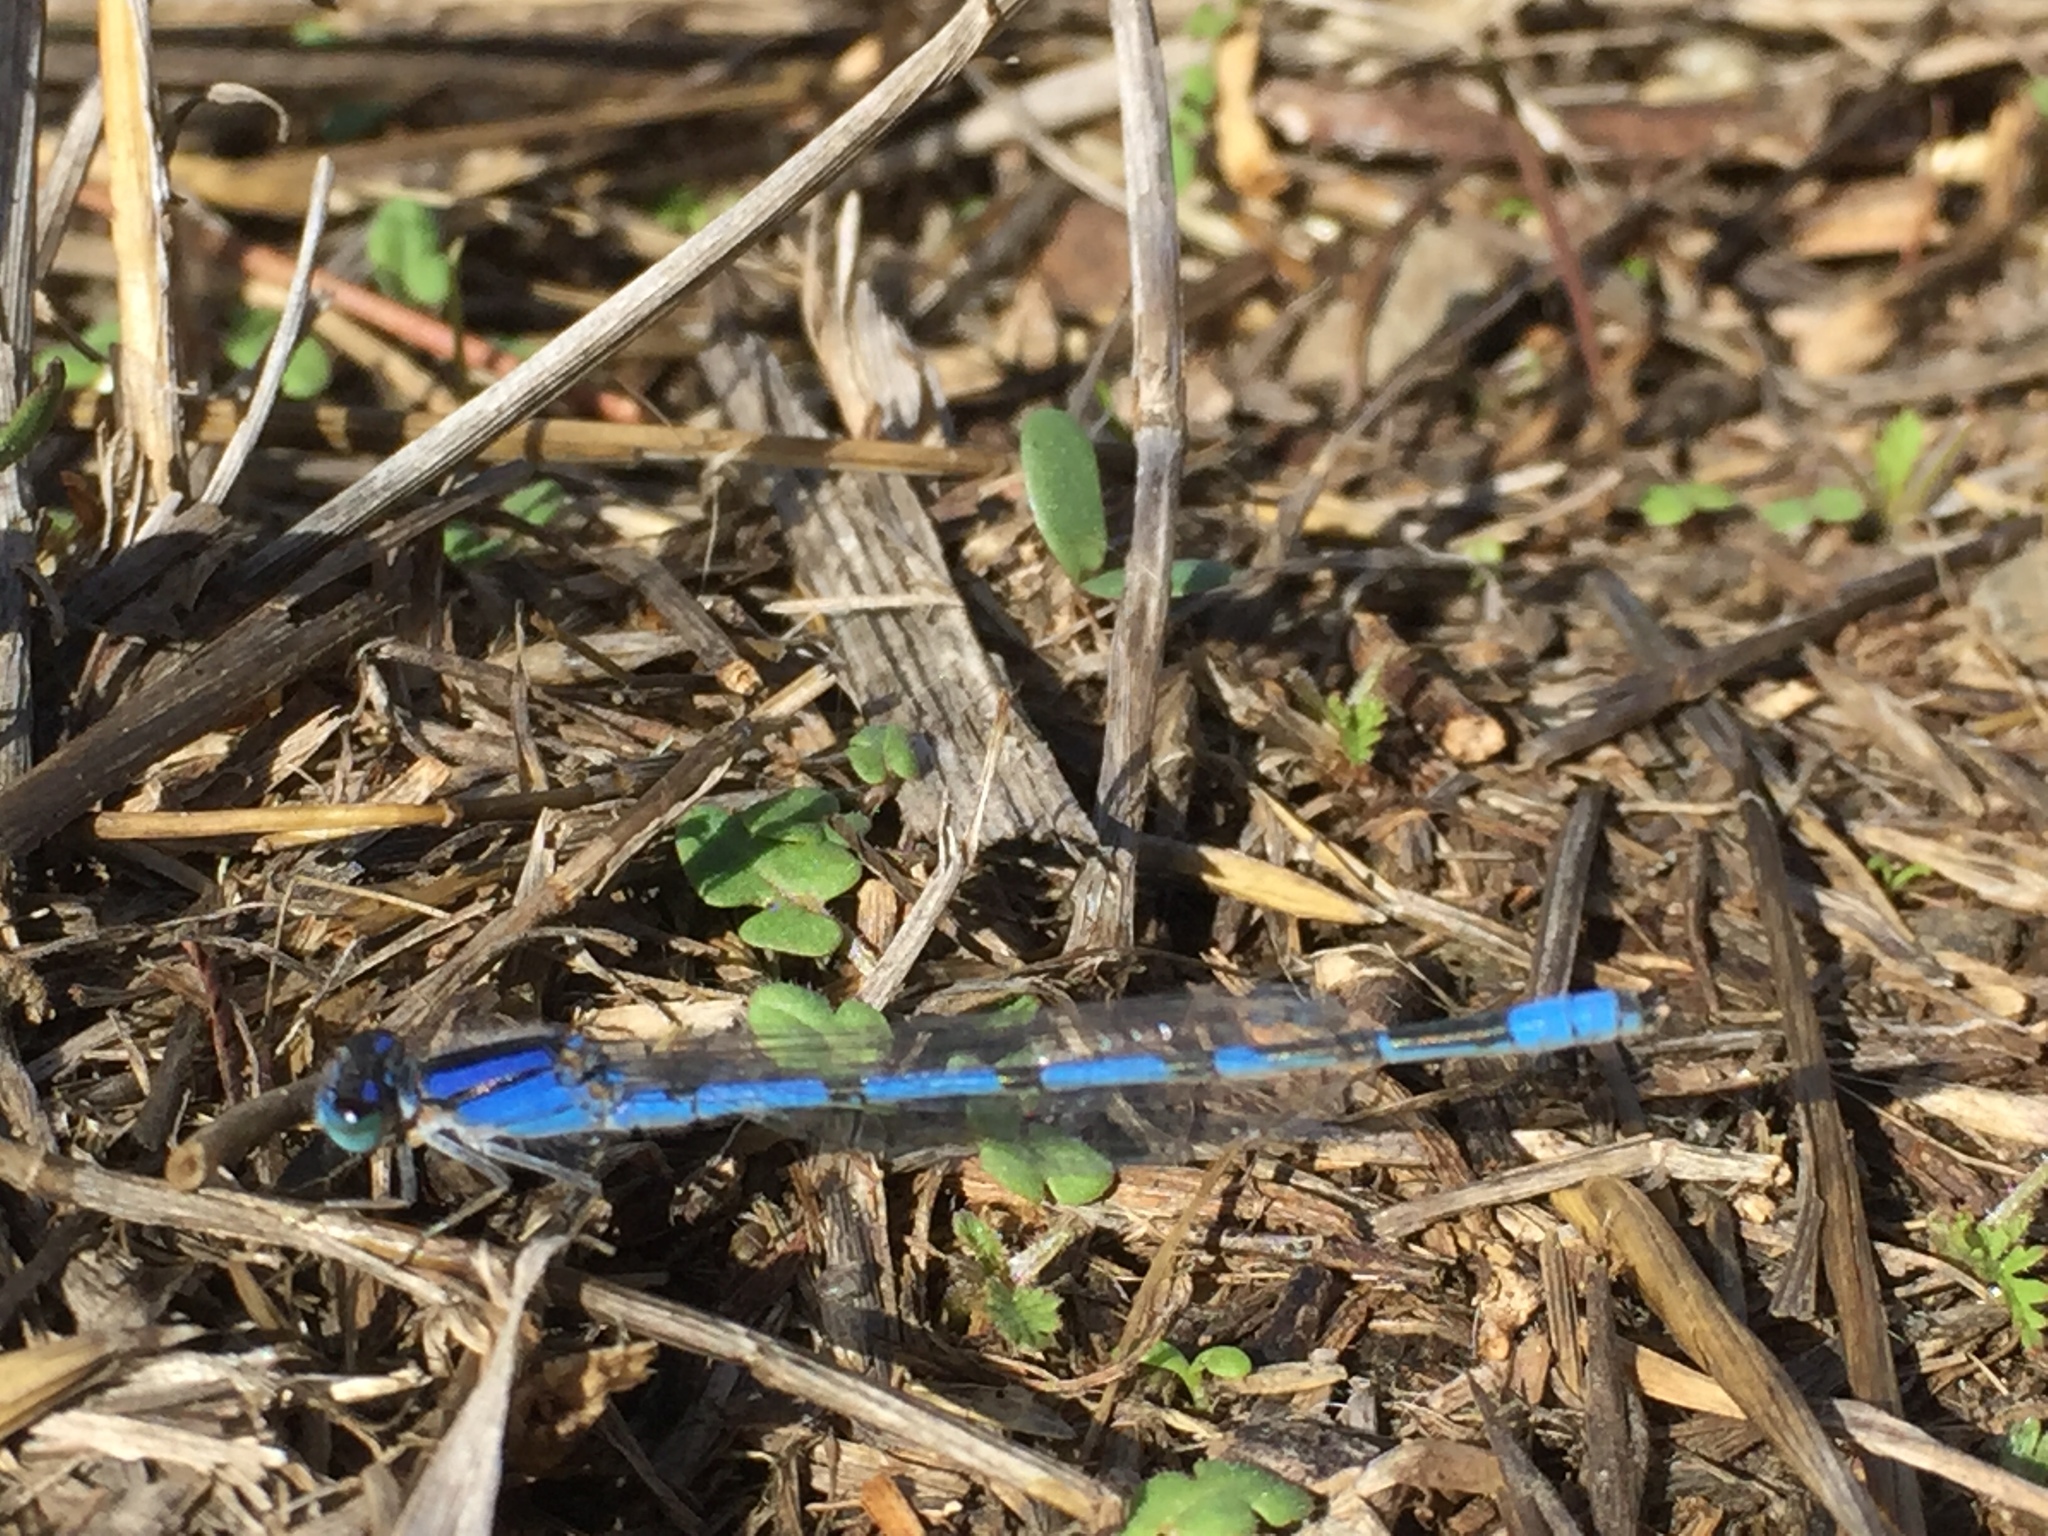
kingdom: Animalia
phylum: Arthropoda
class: Insecta
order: Odonata
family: Coenagrionidae
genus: Enallagma
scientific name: Enallagma civile
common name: Damselfly
